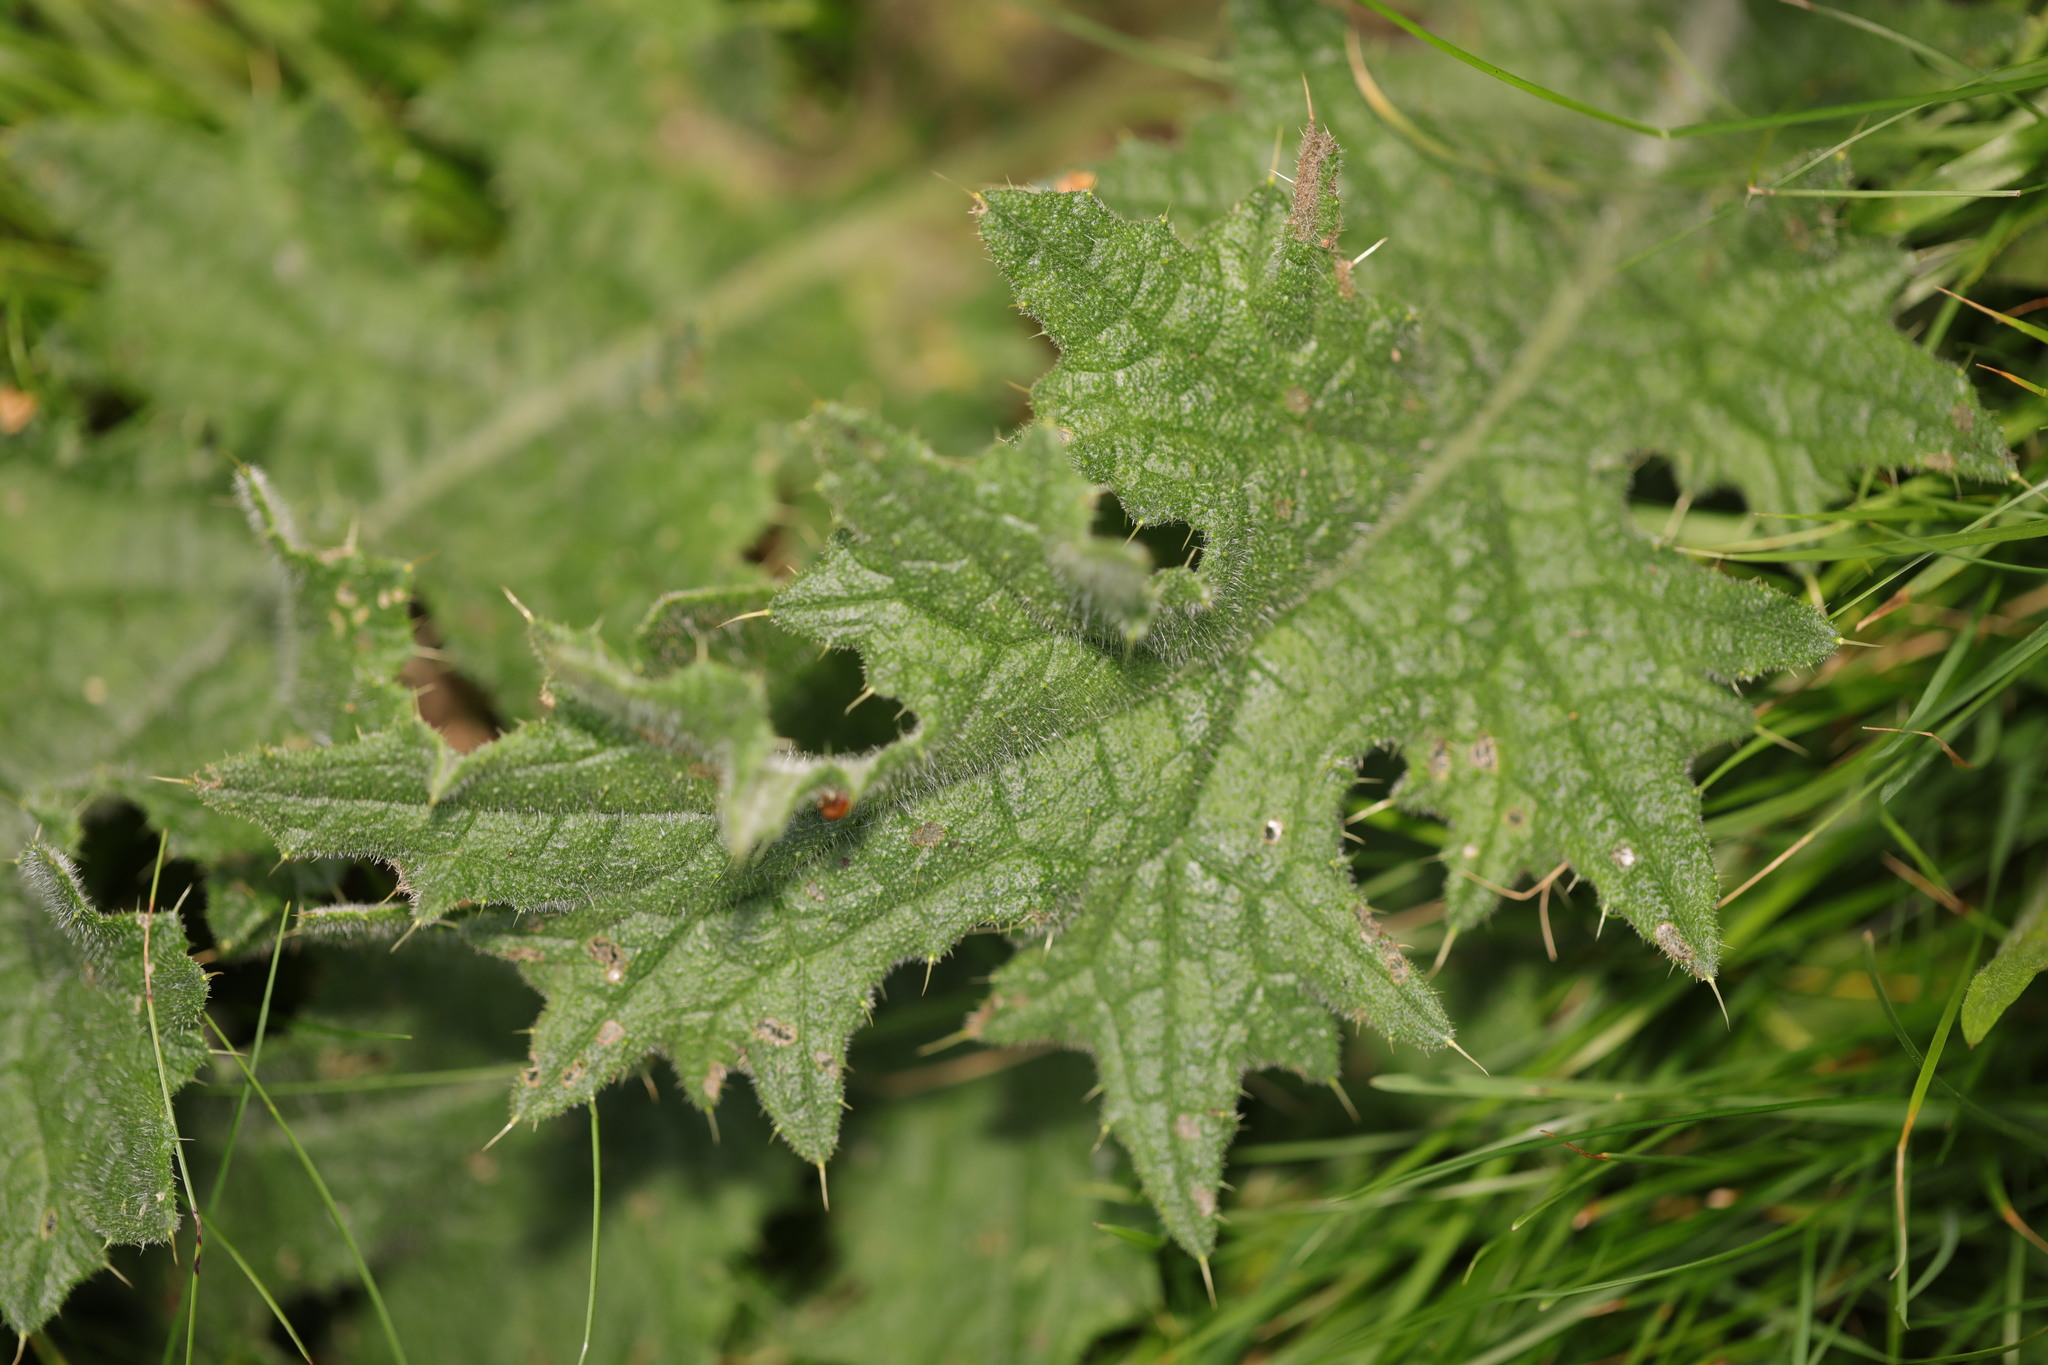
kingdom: Plantae
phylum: Tracheophyta
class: Magnoliopsida
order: Asterales
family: Asteraceae
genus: Cirsium
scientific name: Cirsium vulgare
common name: Bull thistle
